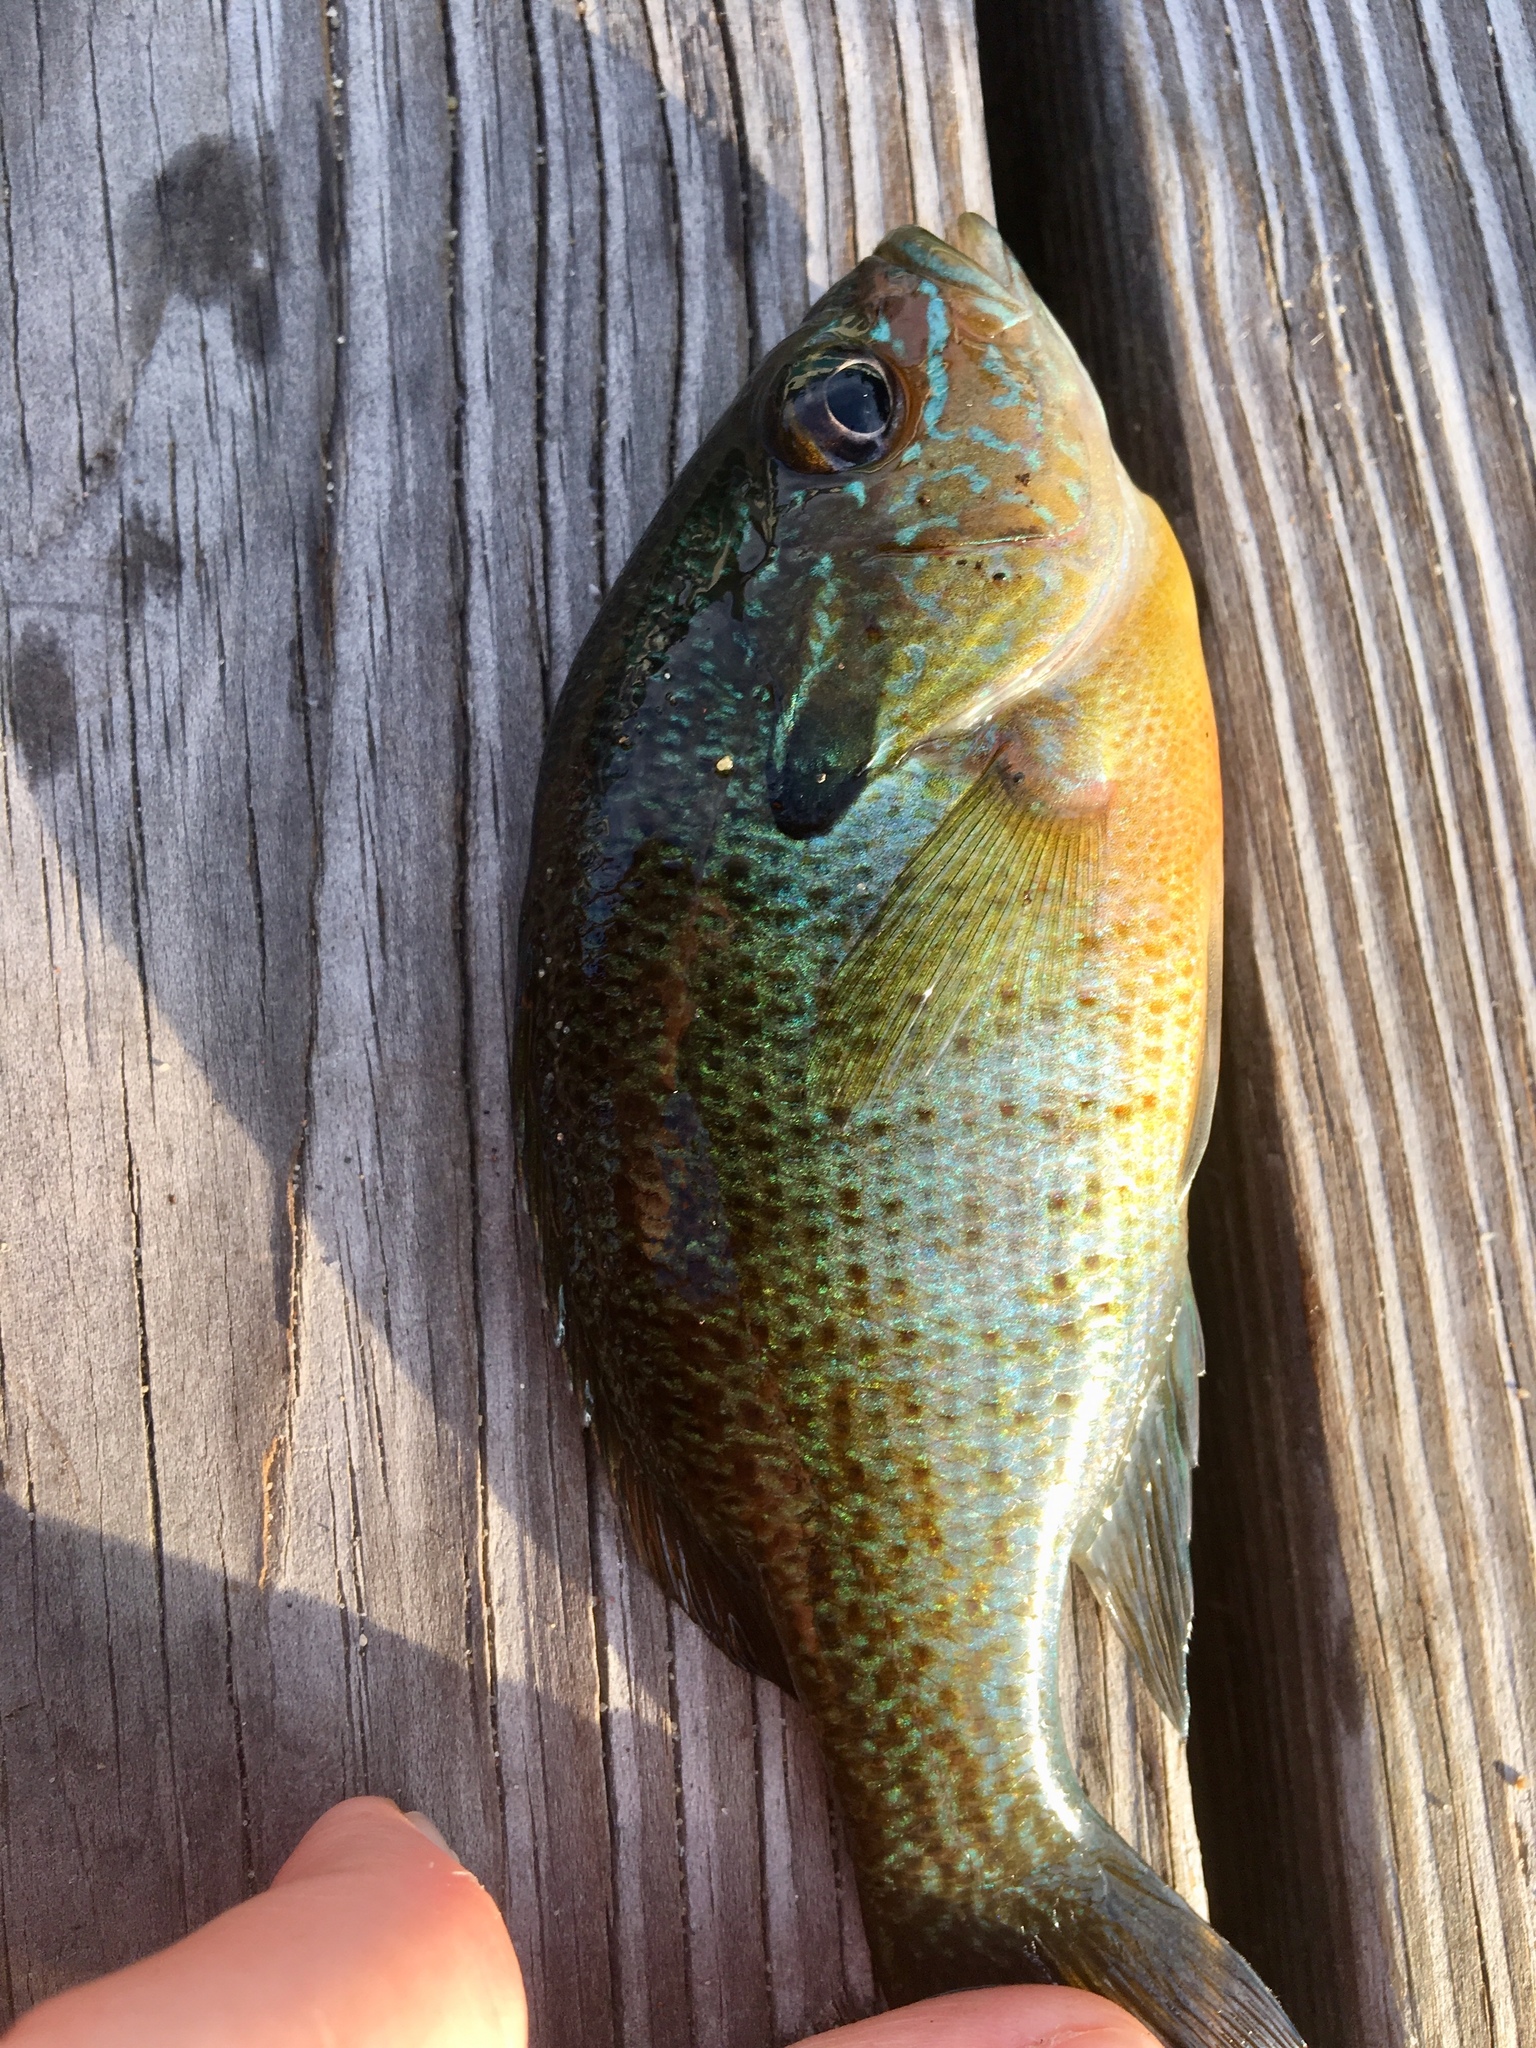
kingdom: Animalia
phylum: Chordata
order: Perciformes
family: Centrarchidae
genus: Lepomis
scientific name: Lepomis auritus
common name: Redbreast sunfish
